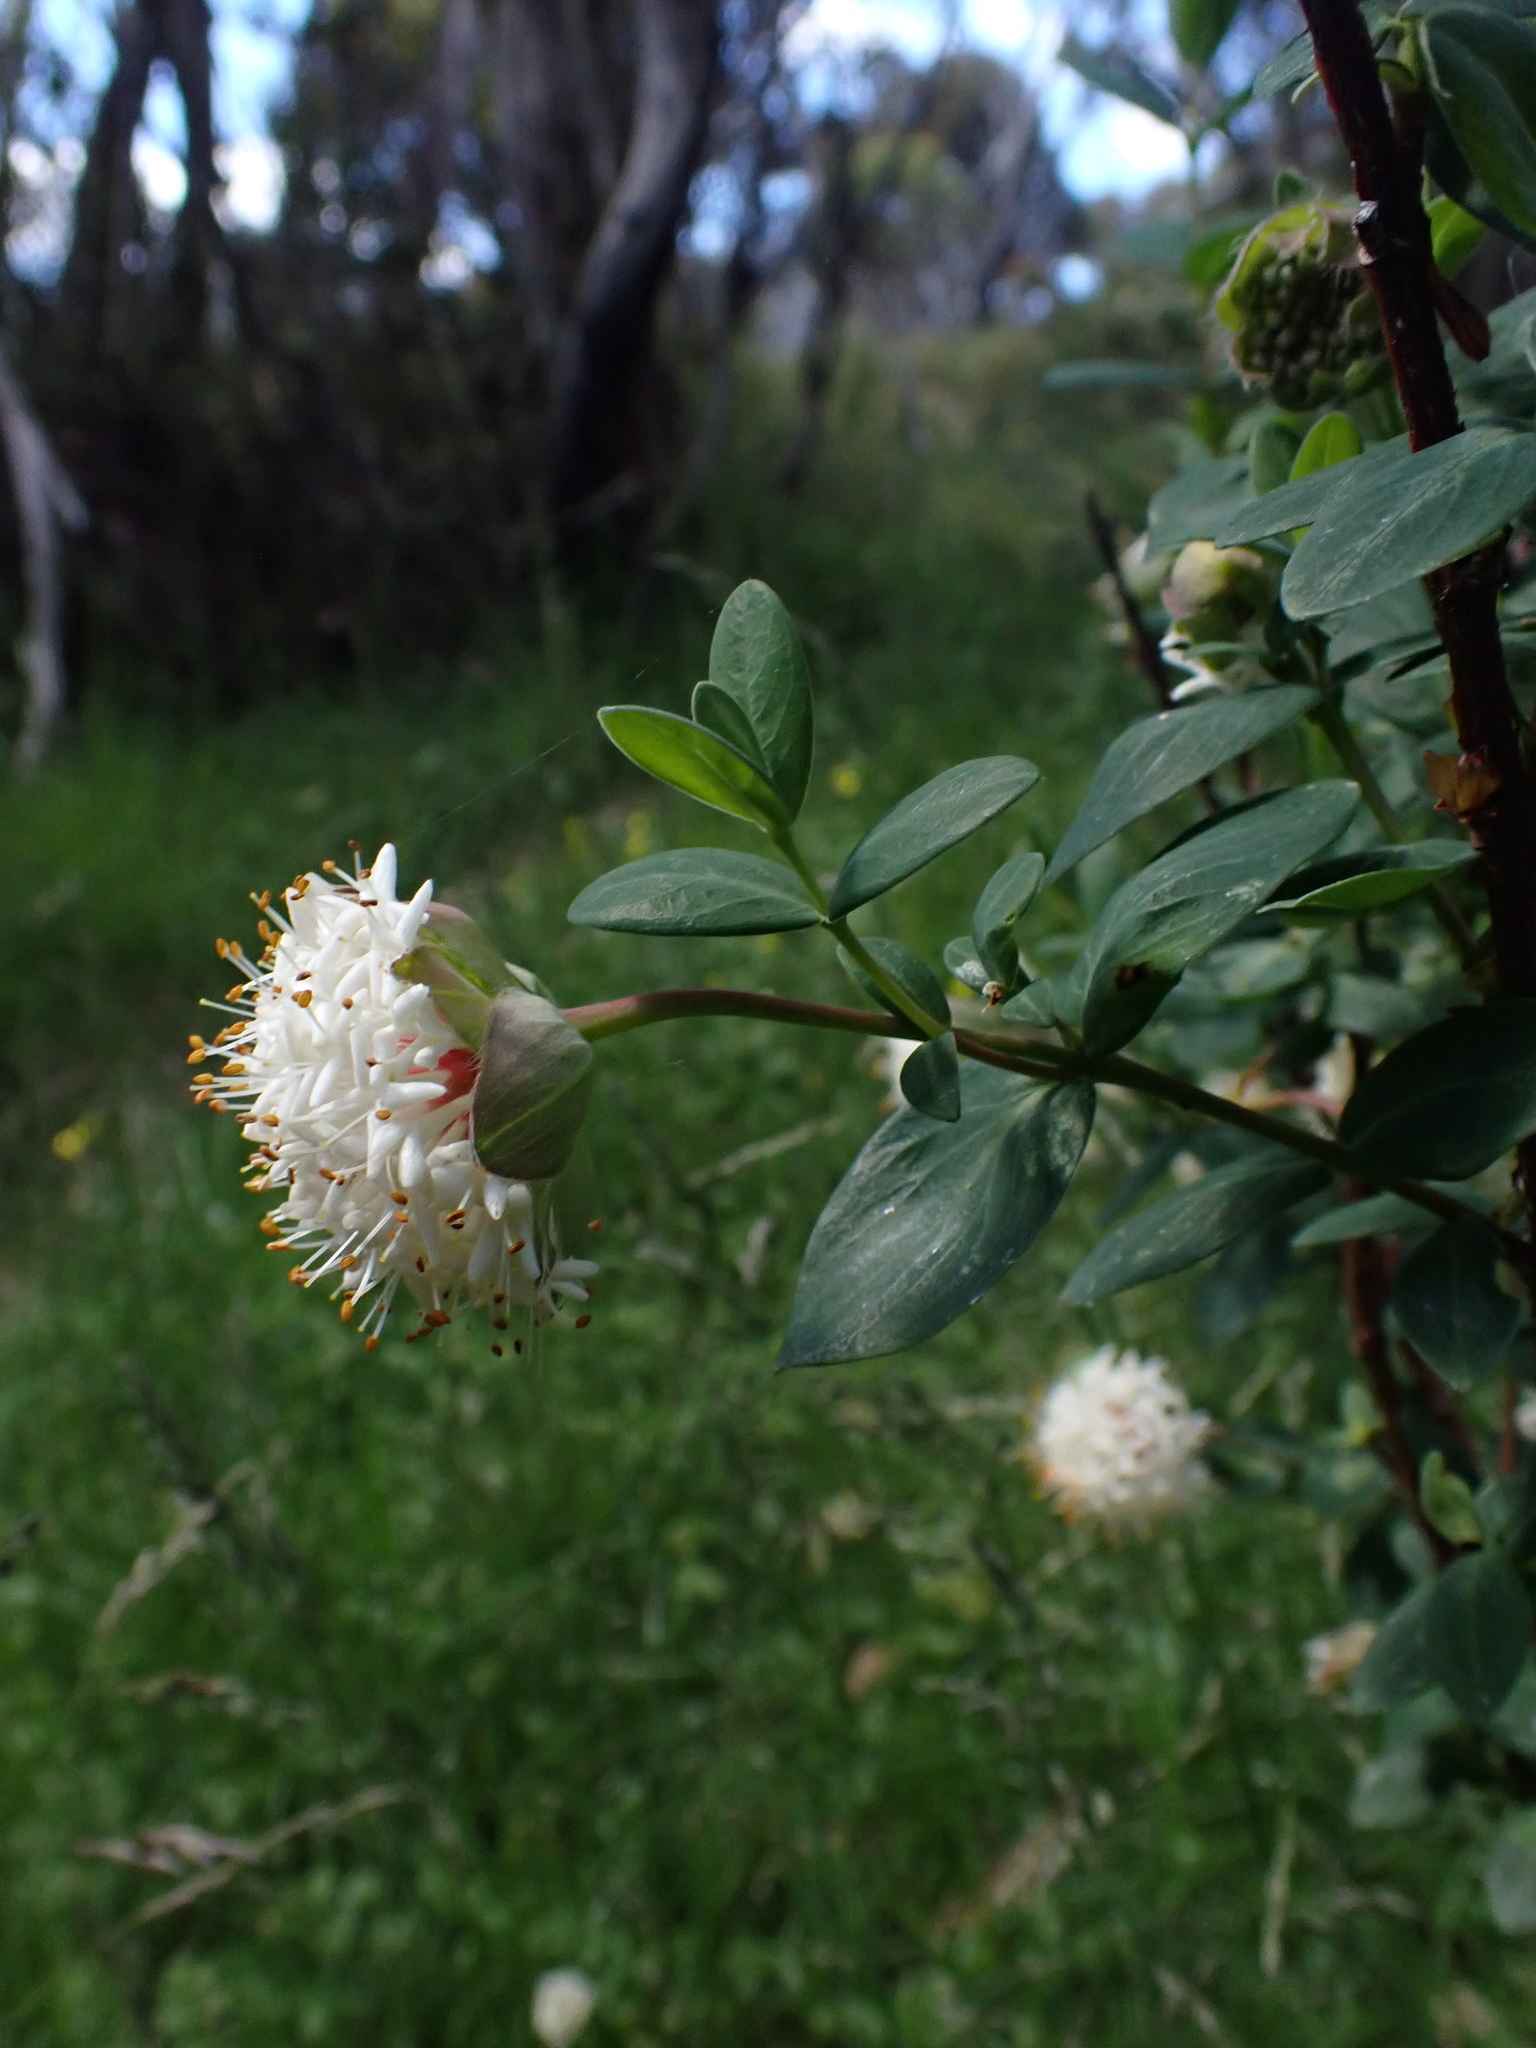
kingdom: Plantae
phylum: Tracheophyta
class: Magnoliopsida
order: Malvales
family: Thymelaeaceae
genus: Pimelea
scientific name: Pimelea ligustrina
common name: Tall riceflower
